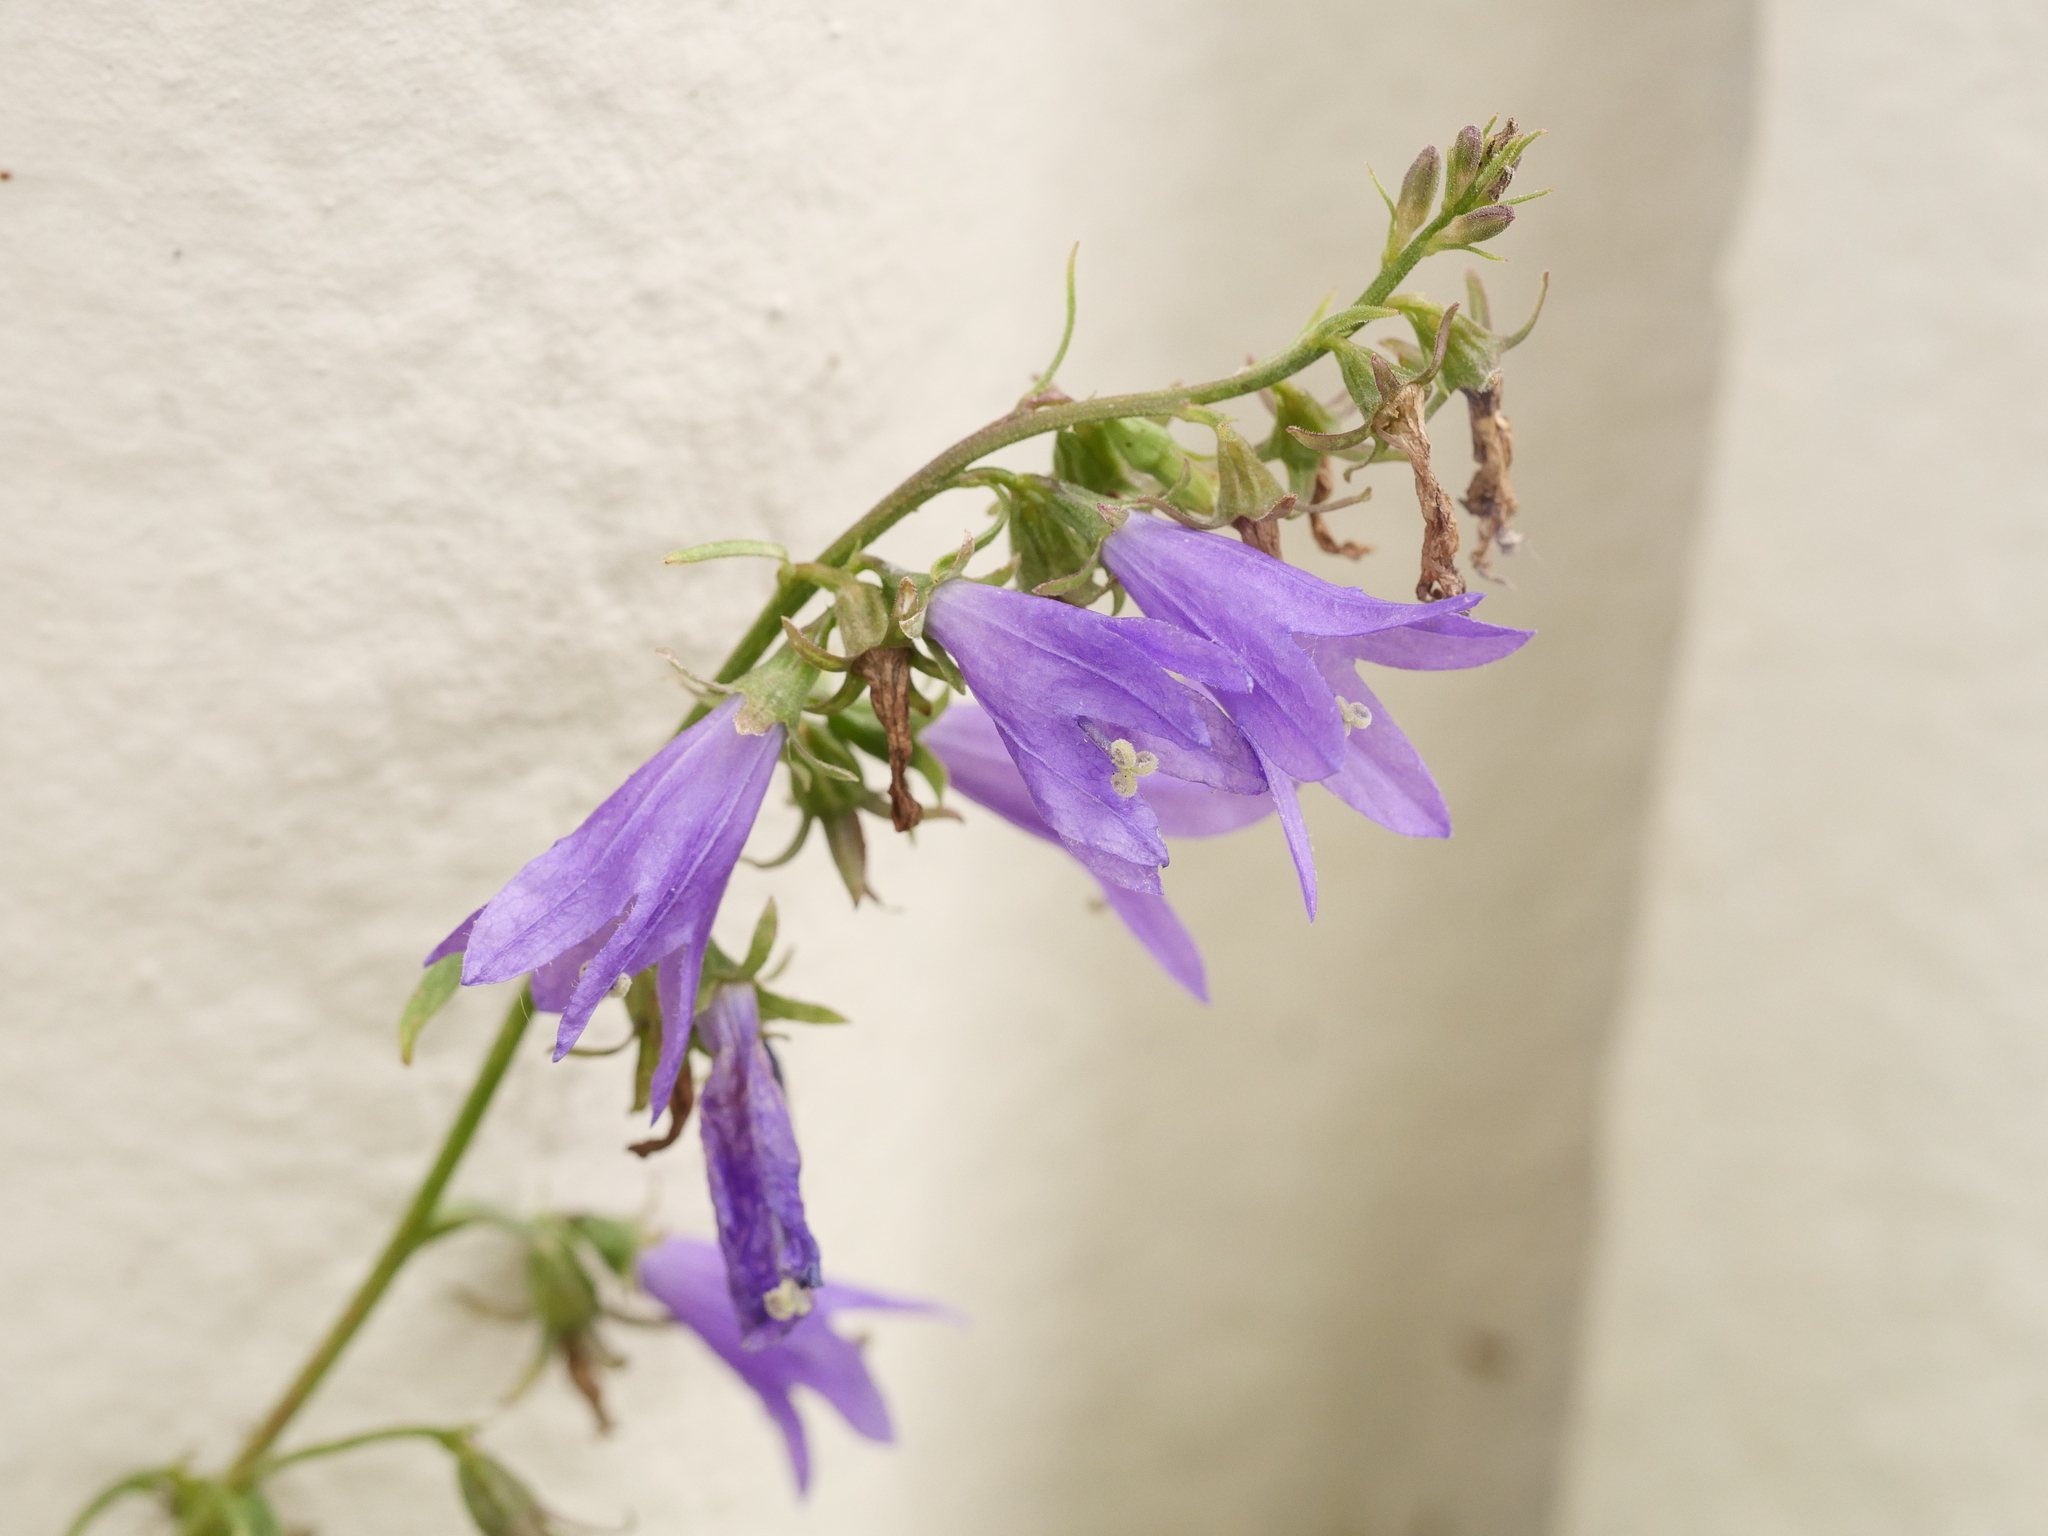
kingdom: Plantae
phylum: Tracheophyta
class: Magnoliopsida
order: Asterales
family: Campanulaceae
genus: Campanula
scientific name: Campanula rapunculoides
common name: Creeping bellflower
